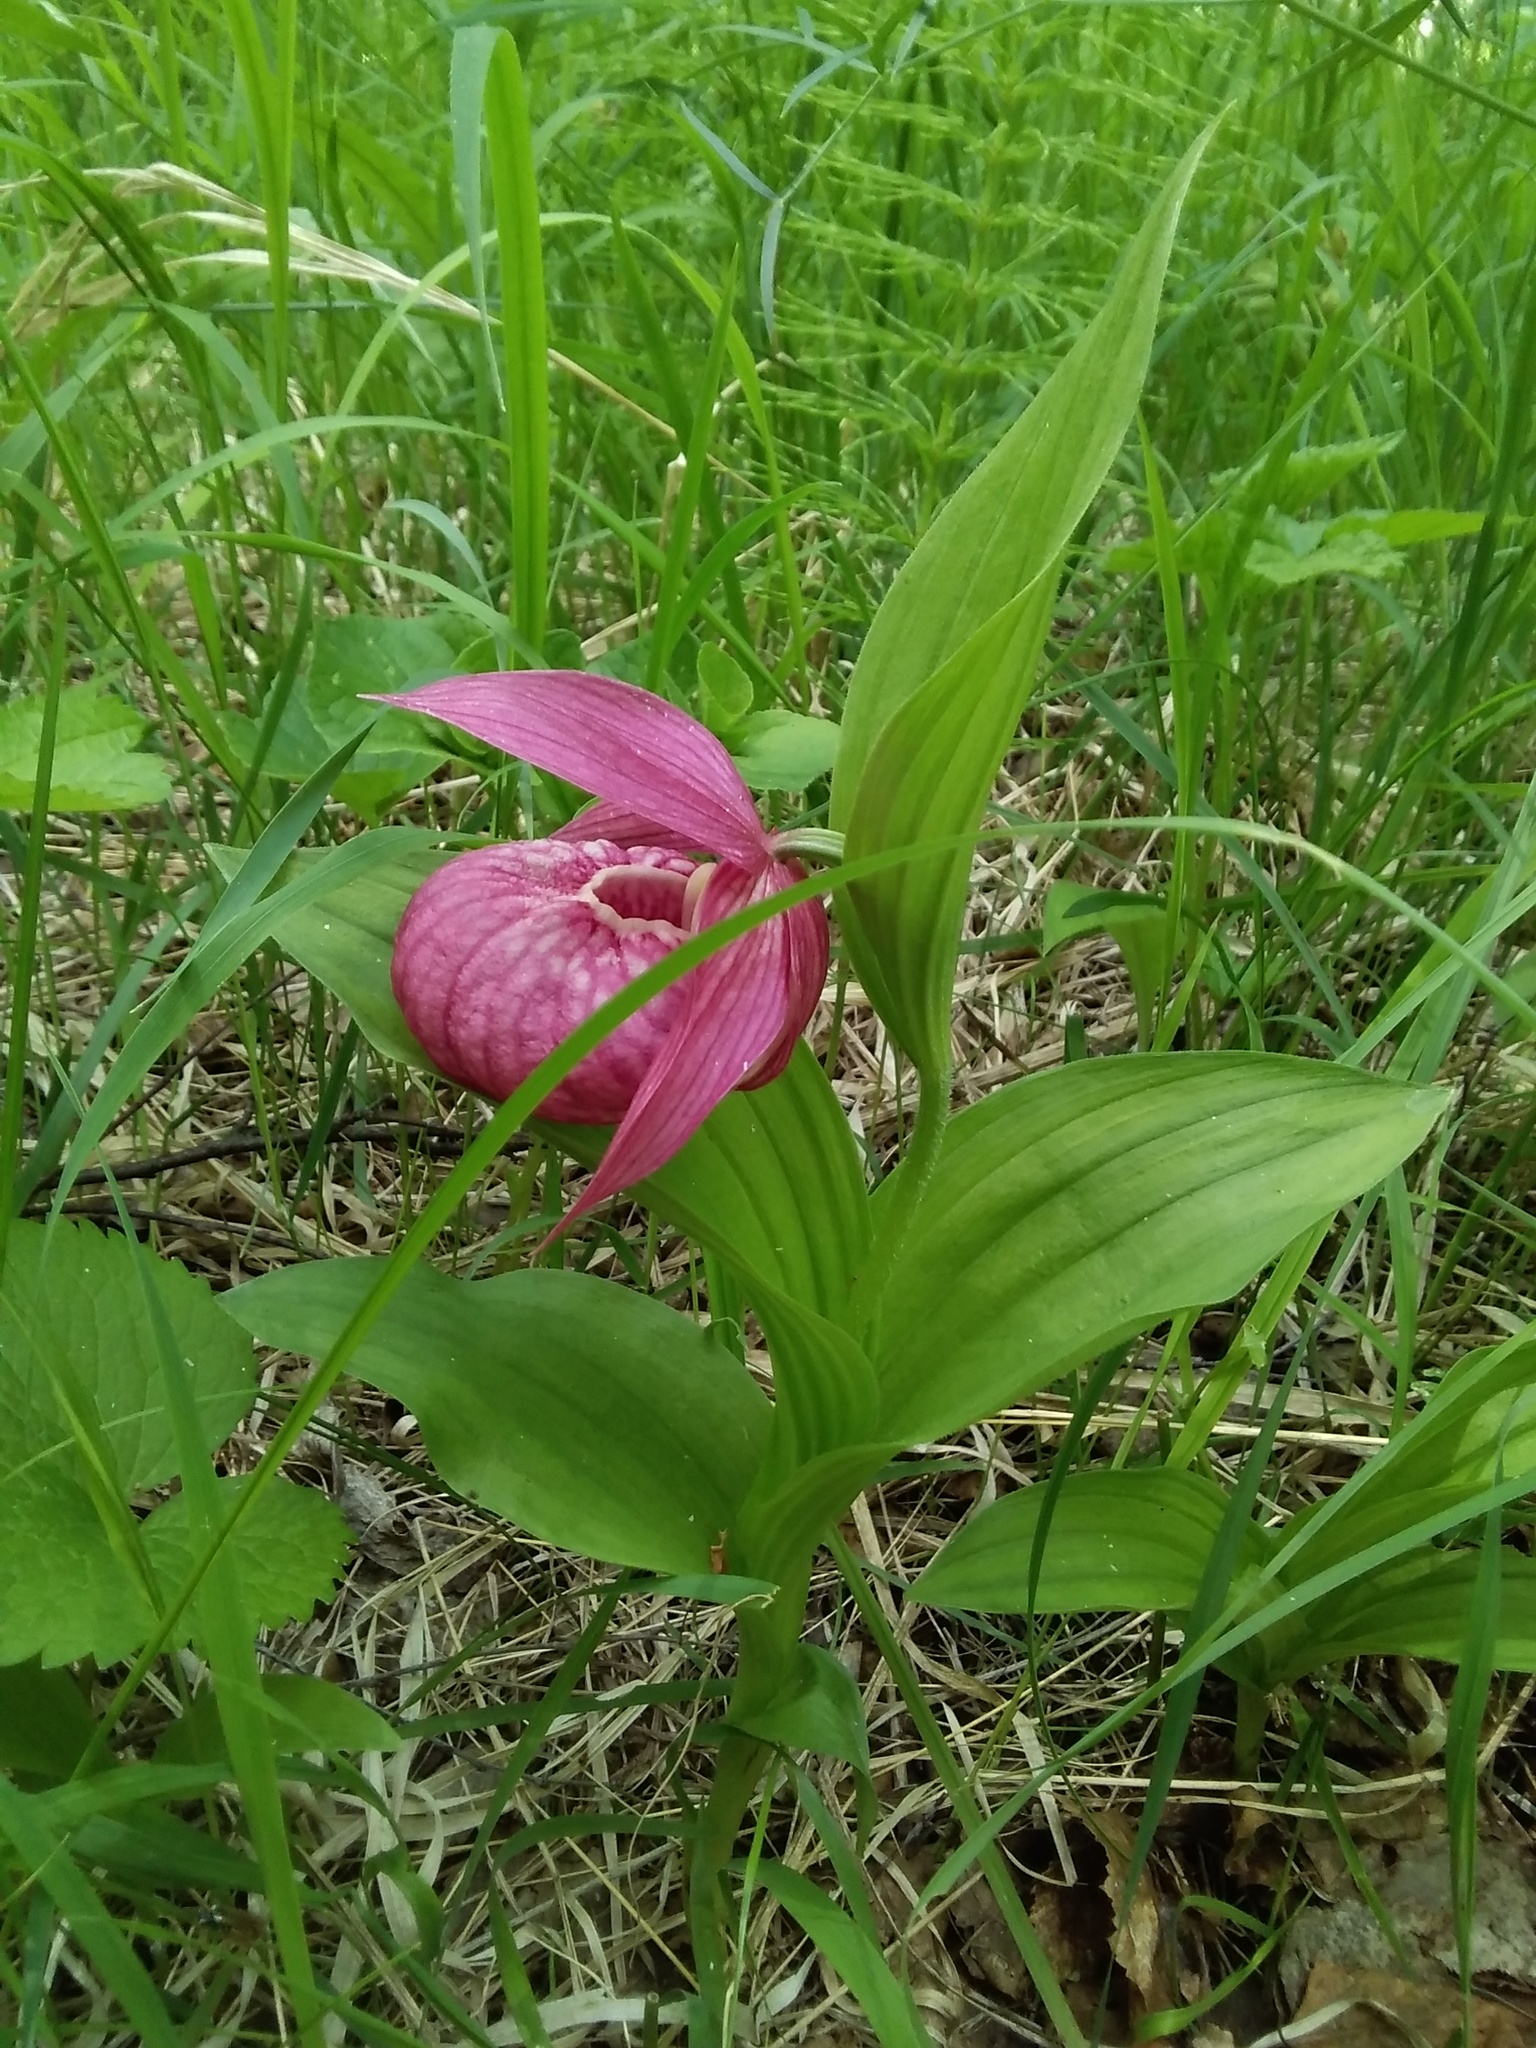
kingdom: Plantae
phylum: Tracheophyta
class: Liliopsida
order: Asparagales
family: Orchidaceae
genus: Cypripedium
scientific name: Cypripedium macranthos
